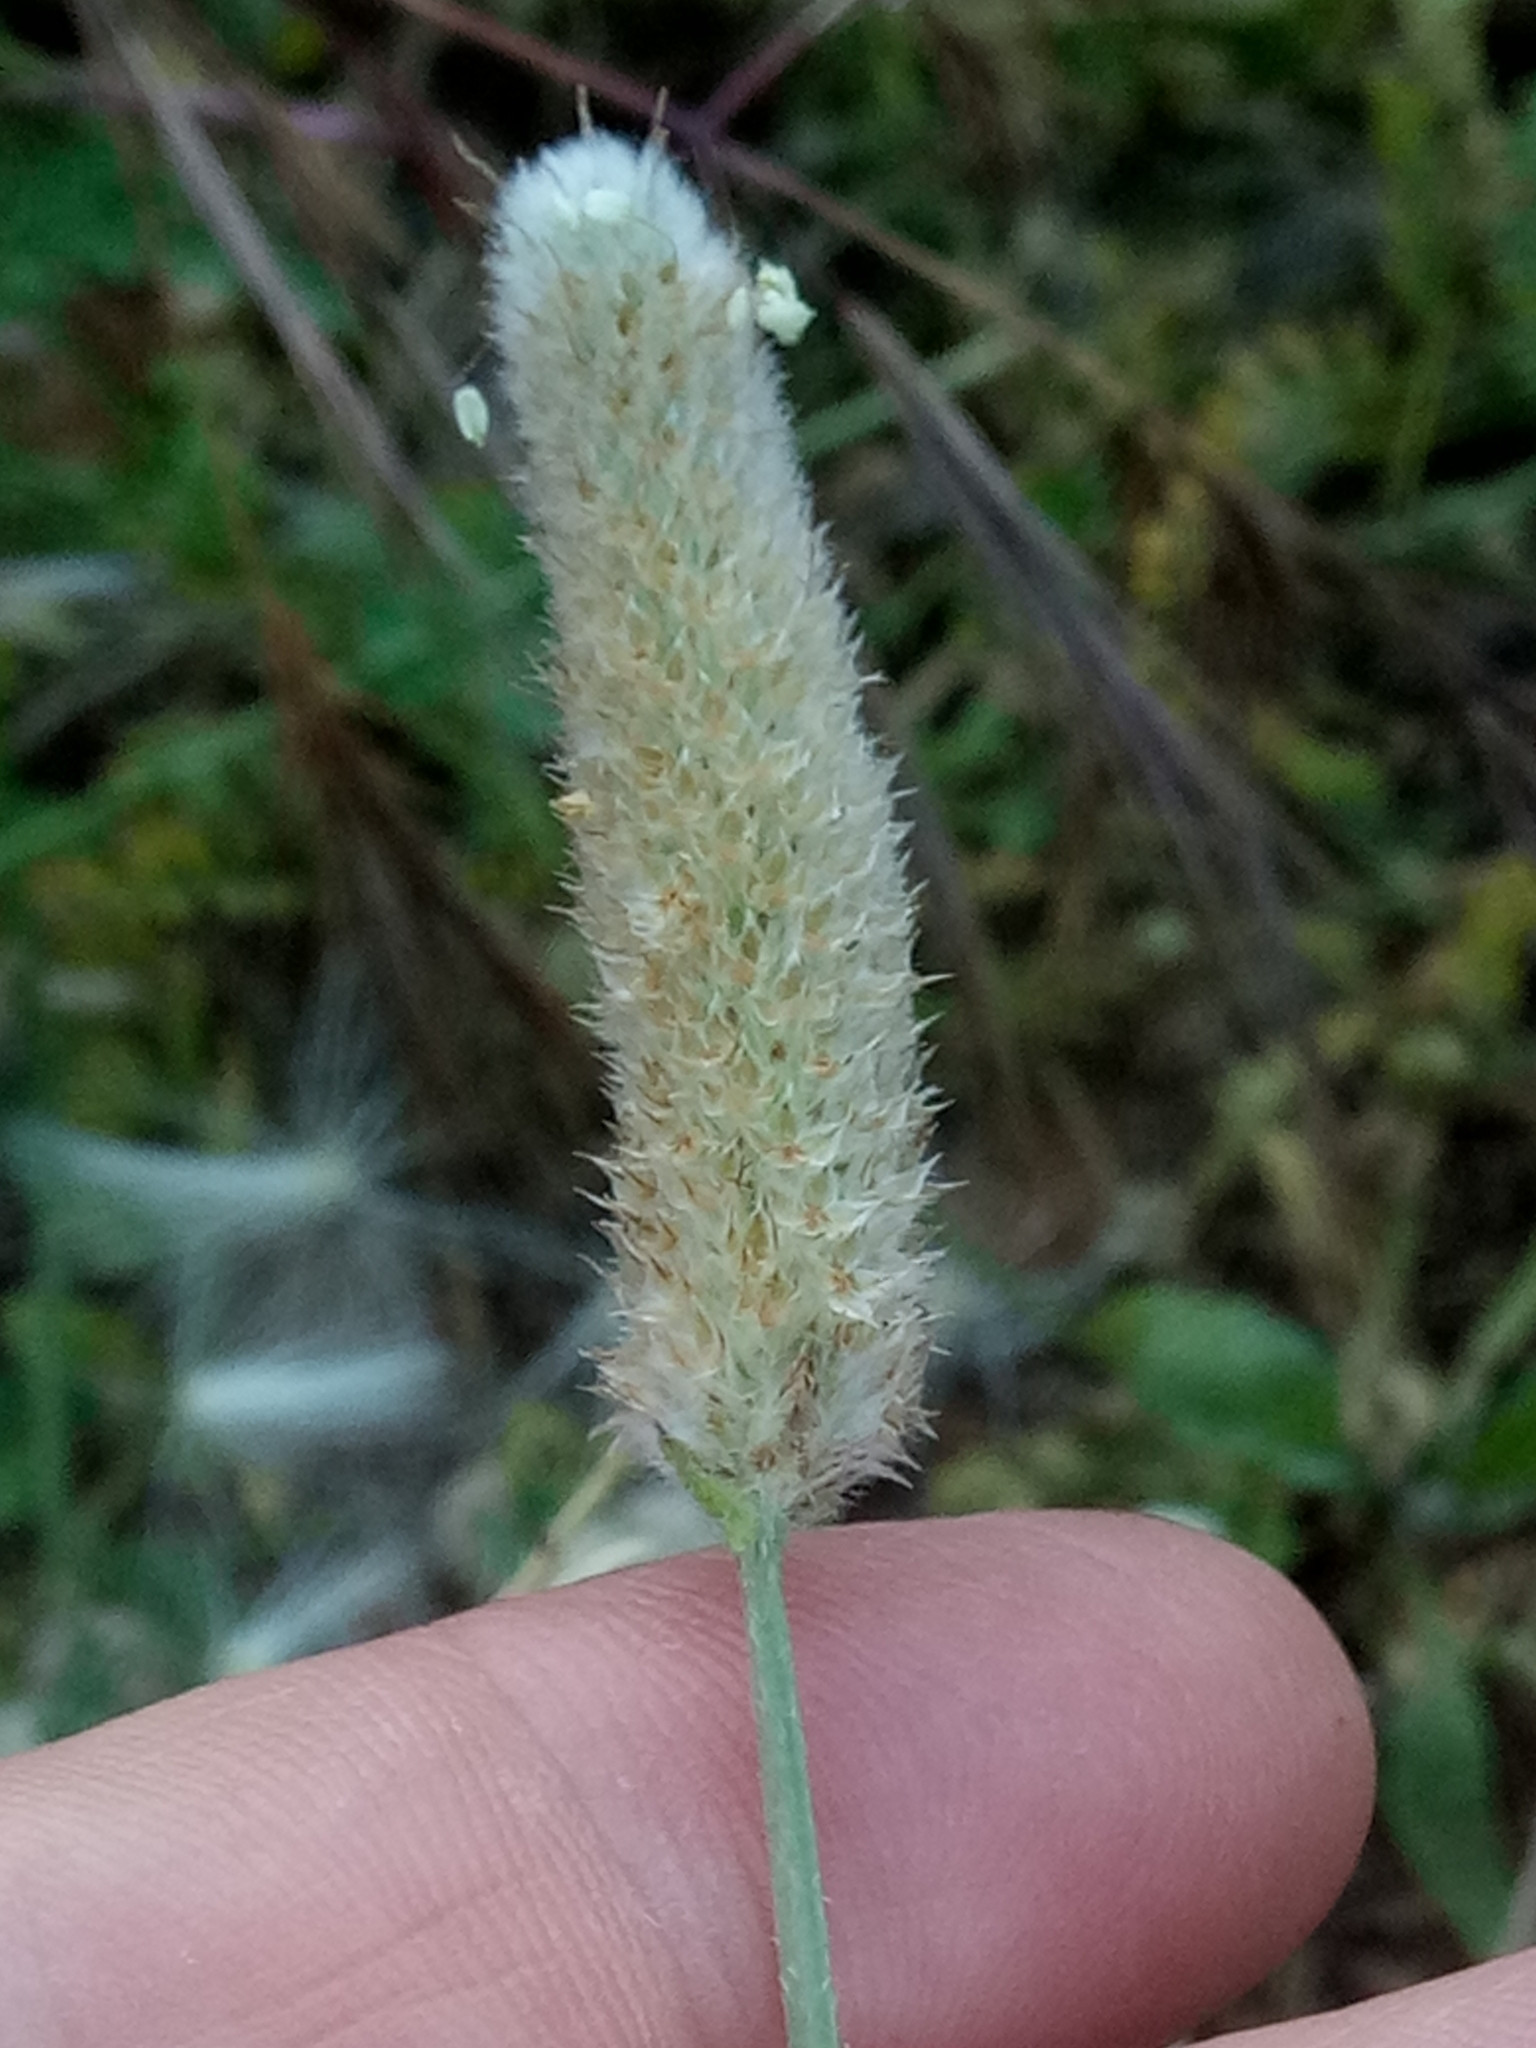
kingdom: Plantae
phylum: Tracheophyta
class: Magnoliopsida
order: Lamiales
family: Plantaginaceae
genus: Plantago
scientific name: Plantago lagopus
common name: Hare-foot plantain
